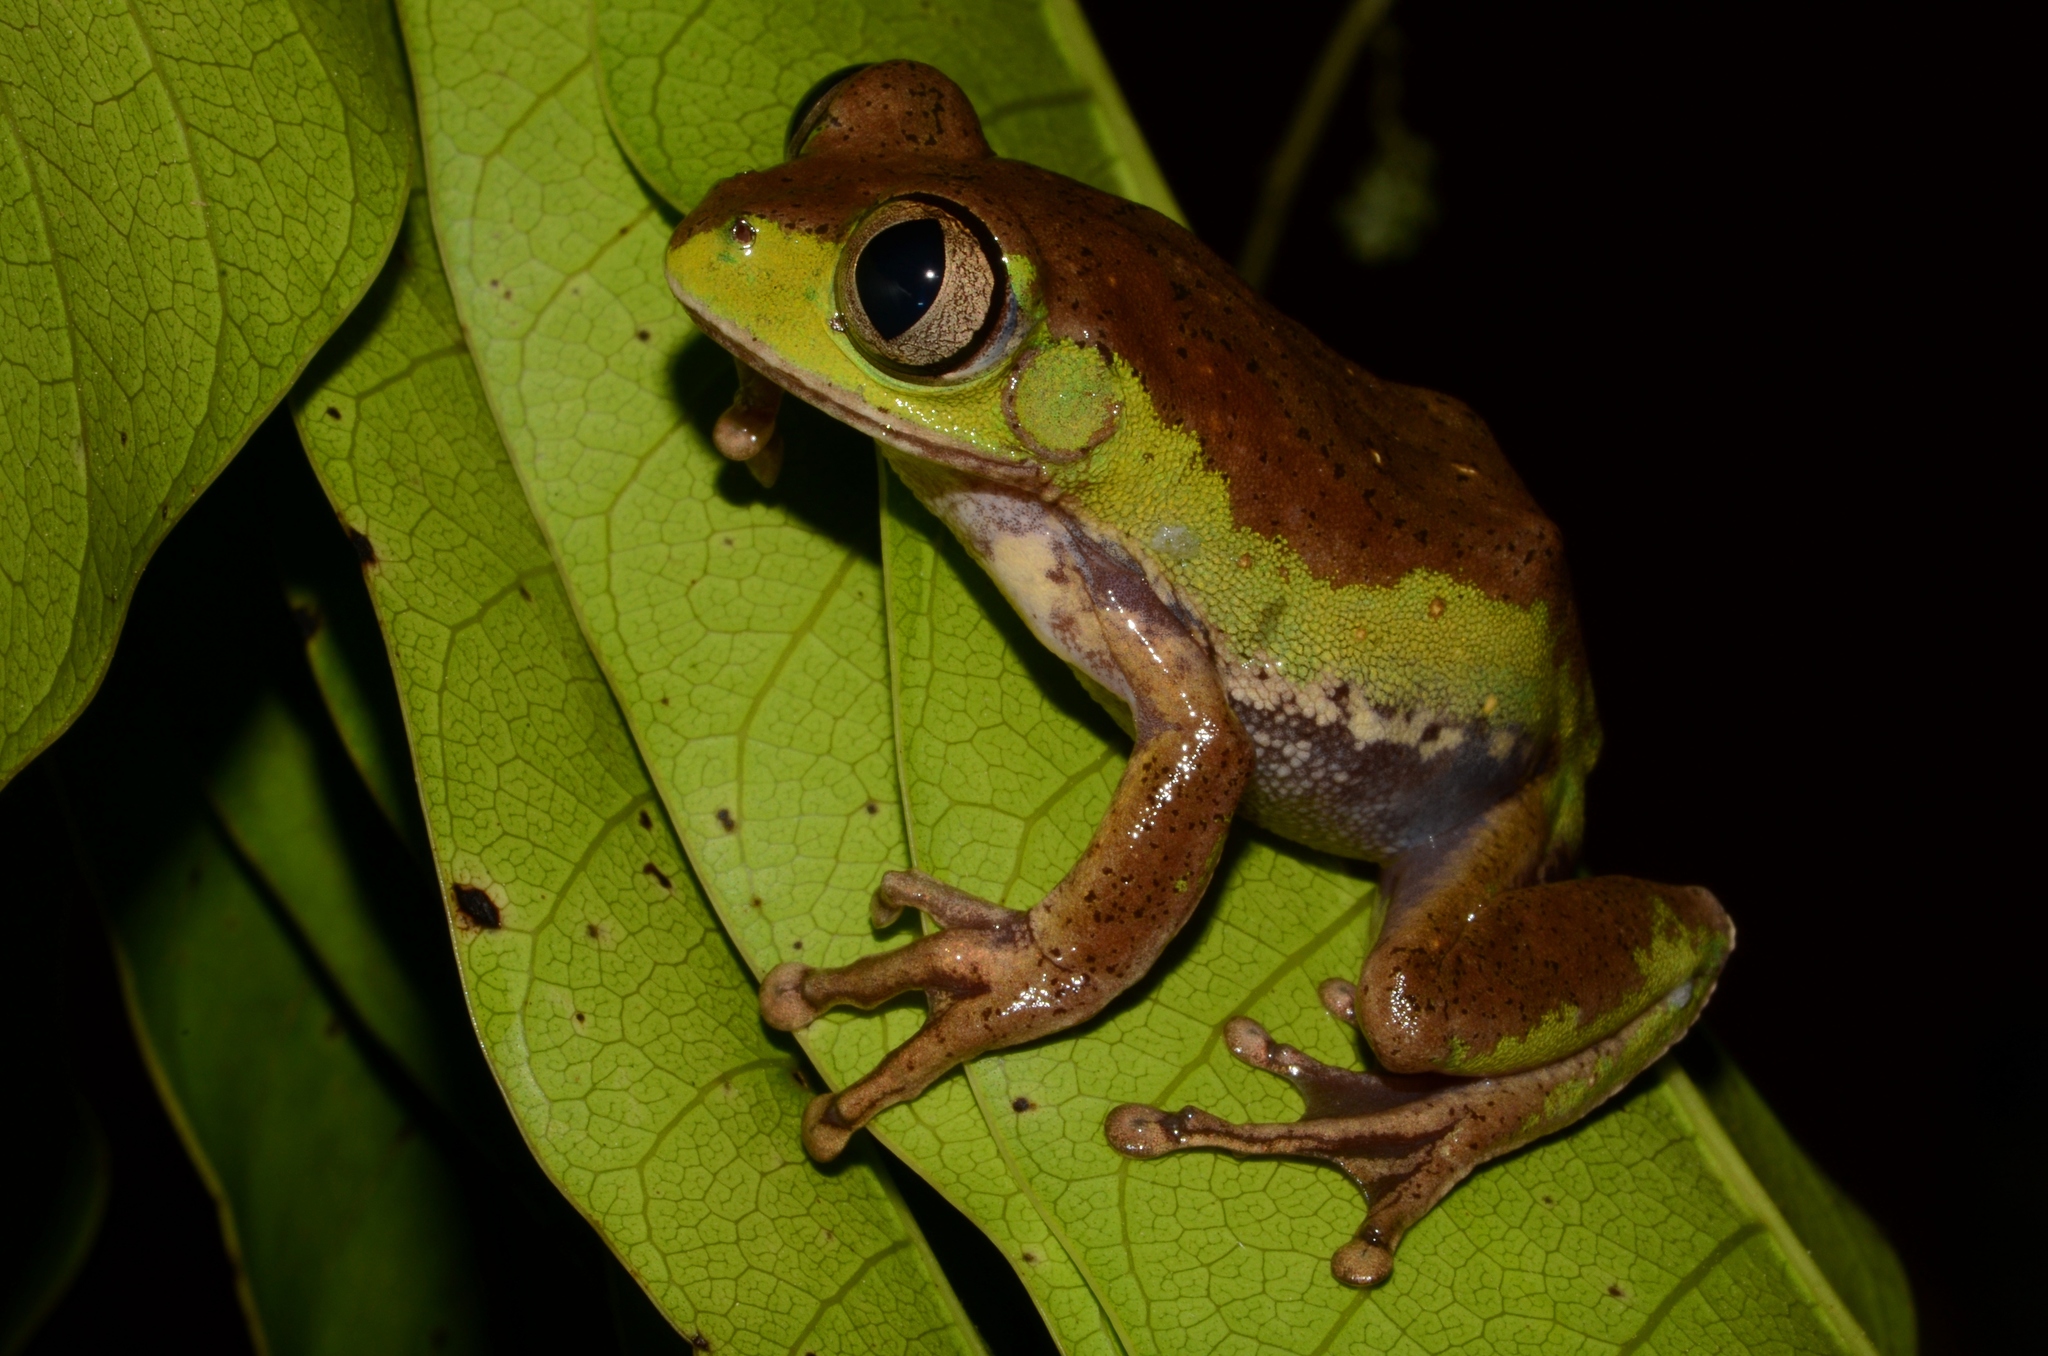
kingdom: Animalia
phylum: Chordata
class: Amphibia
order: Anura
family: Arthroleptidae
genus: Leptopelis
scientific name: Leptopelis notatus
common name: Common forest treefrog
